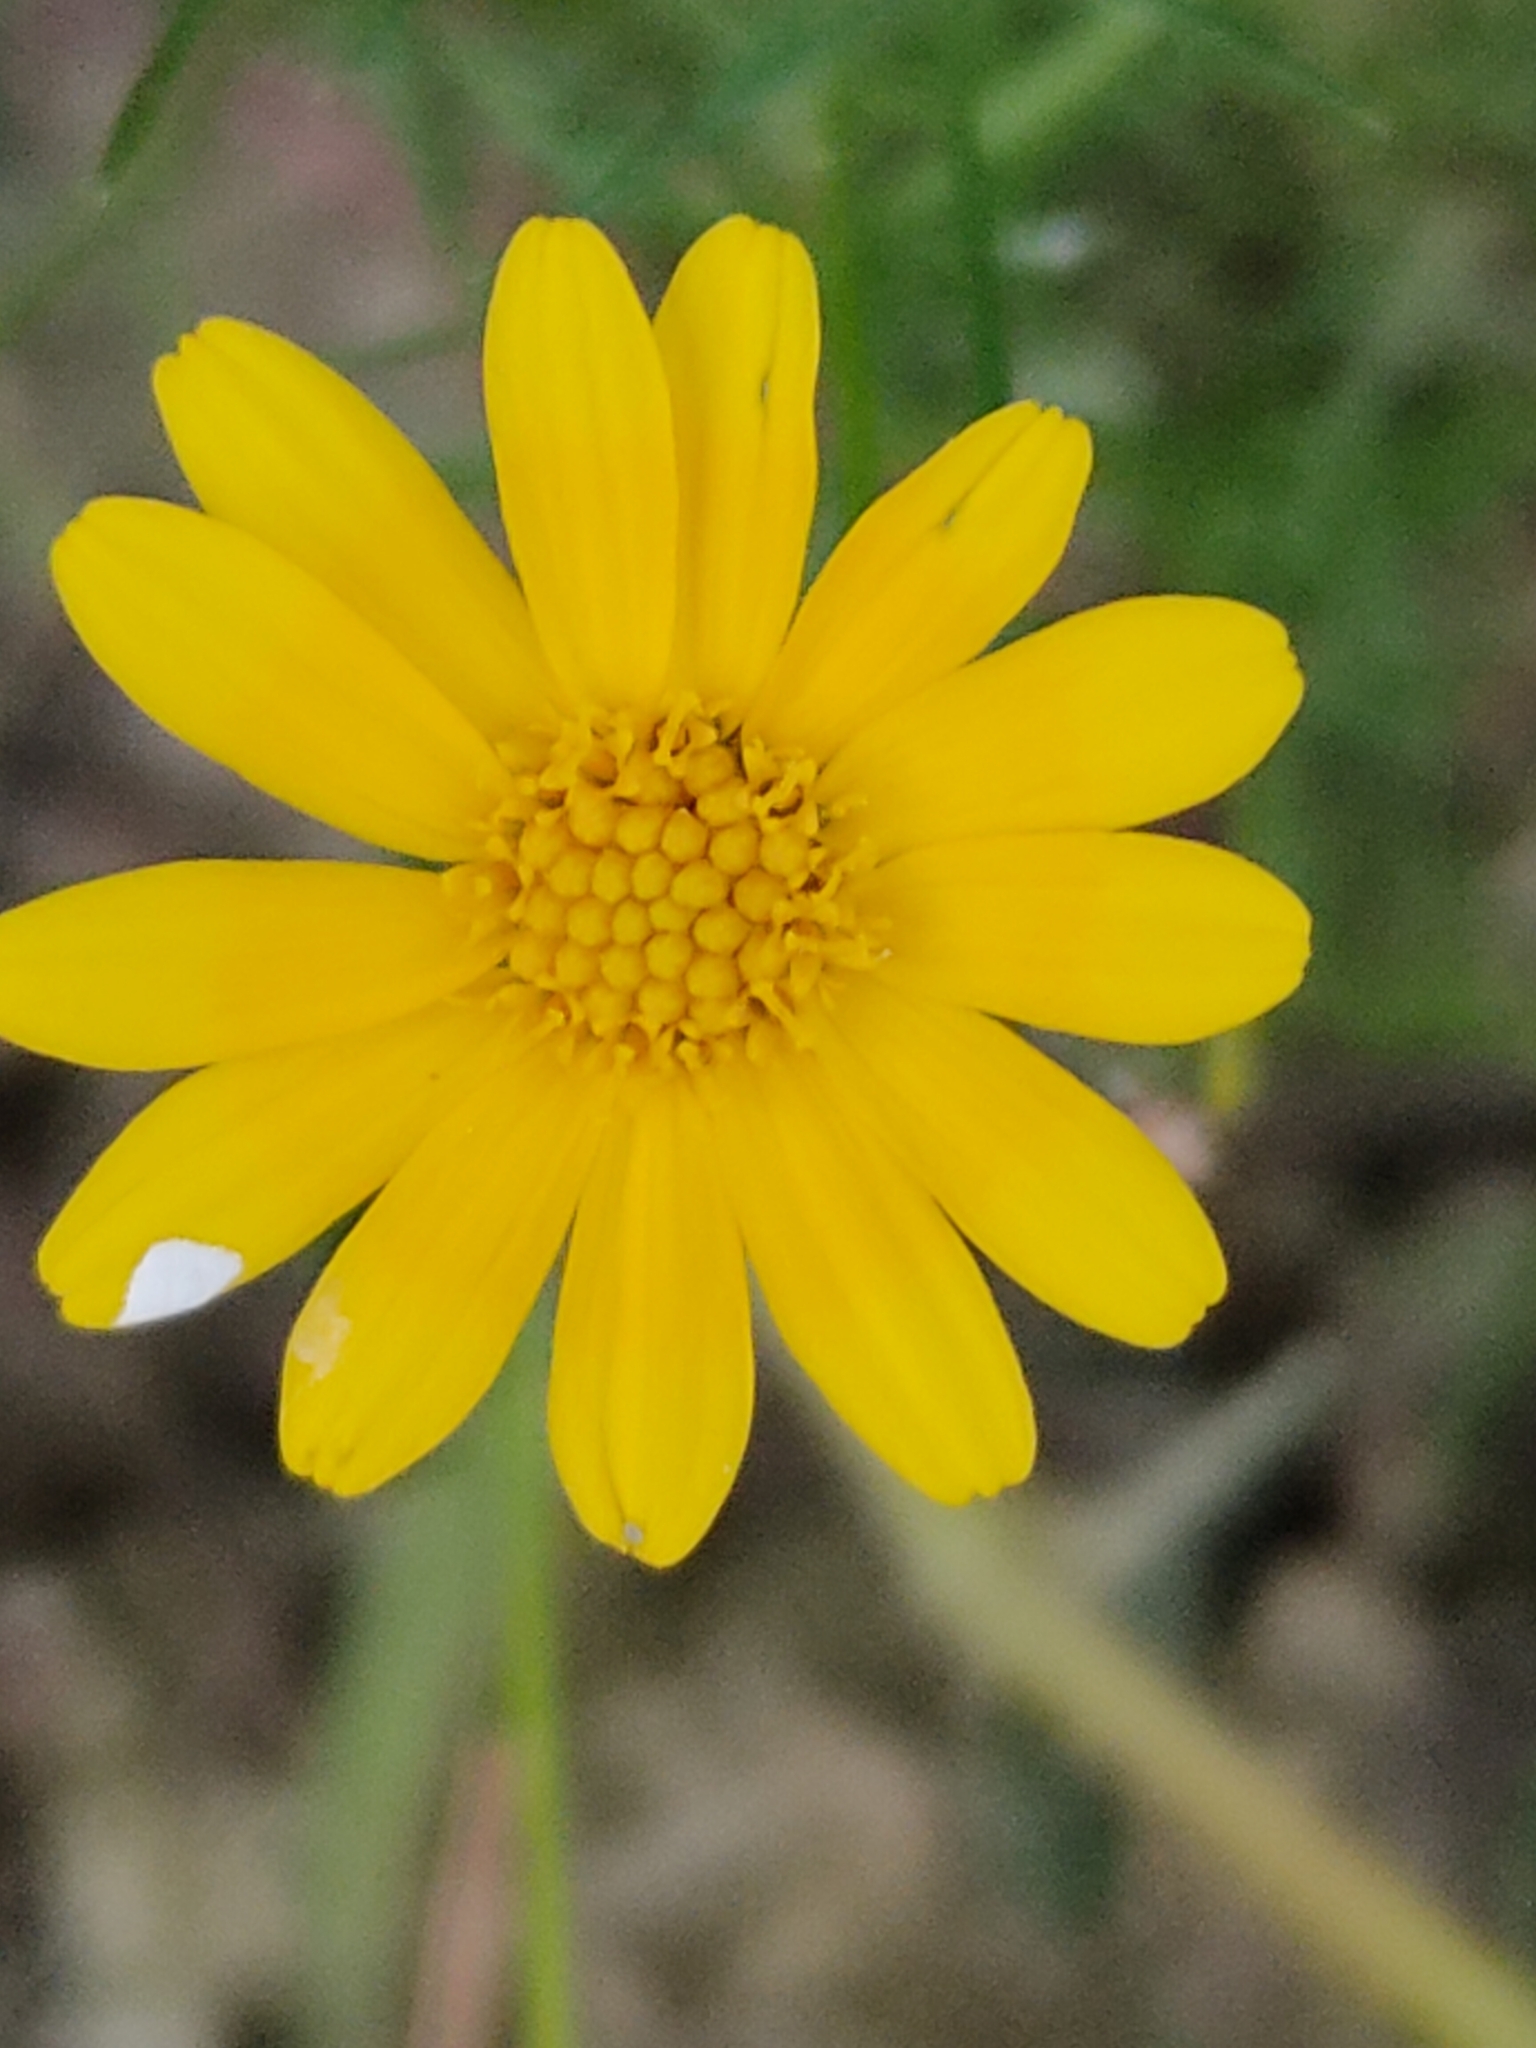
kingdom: Plantae
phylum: Tracheophyta
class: Magnoliopsida
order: Asterales
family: Asteraceae
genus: Thymophylla
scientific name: Thymophylla tenuiloba
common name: Dahlberg's daisy
